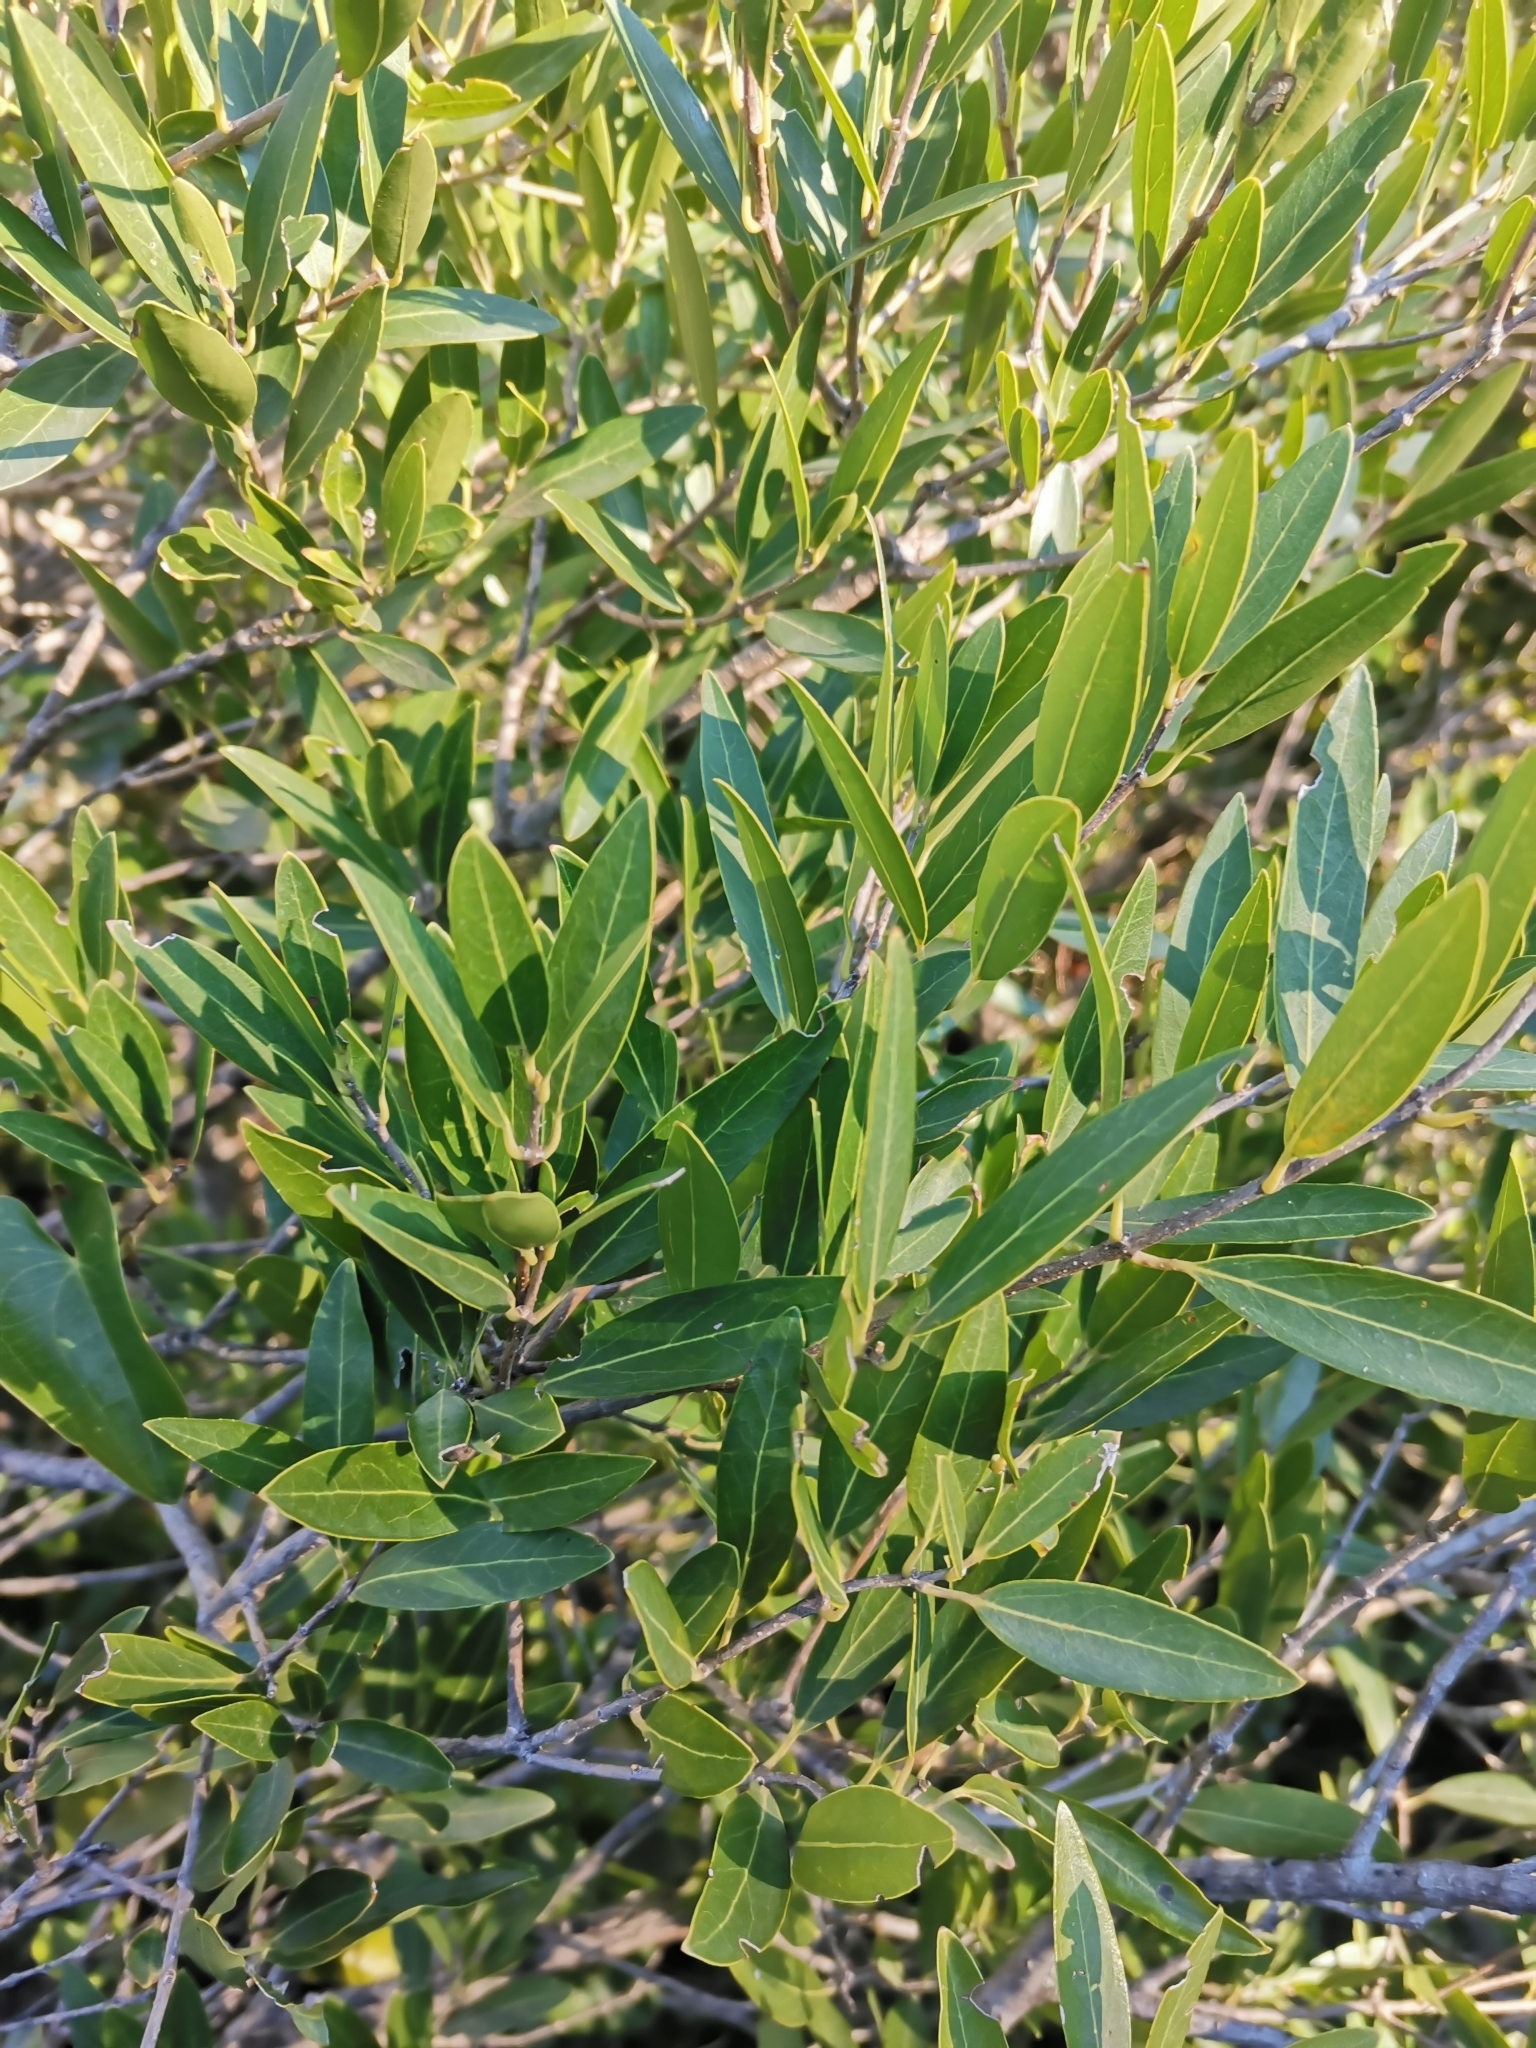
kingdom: Plantae
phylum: Tracheophyta
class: Magnoliopsida
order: Lamiales
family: Oleaceae
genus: Phillyrea
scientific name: Phillyrea angustifolia
